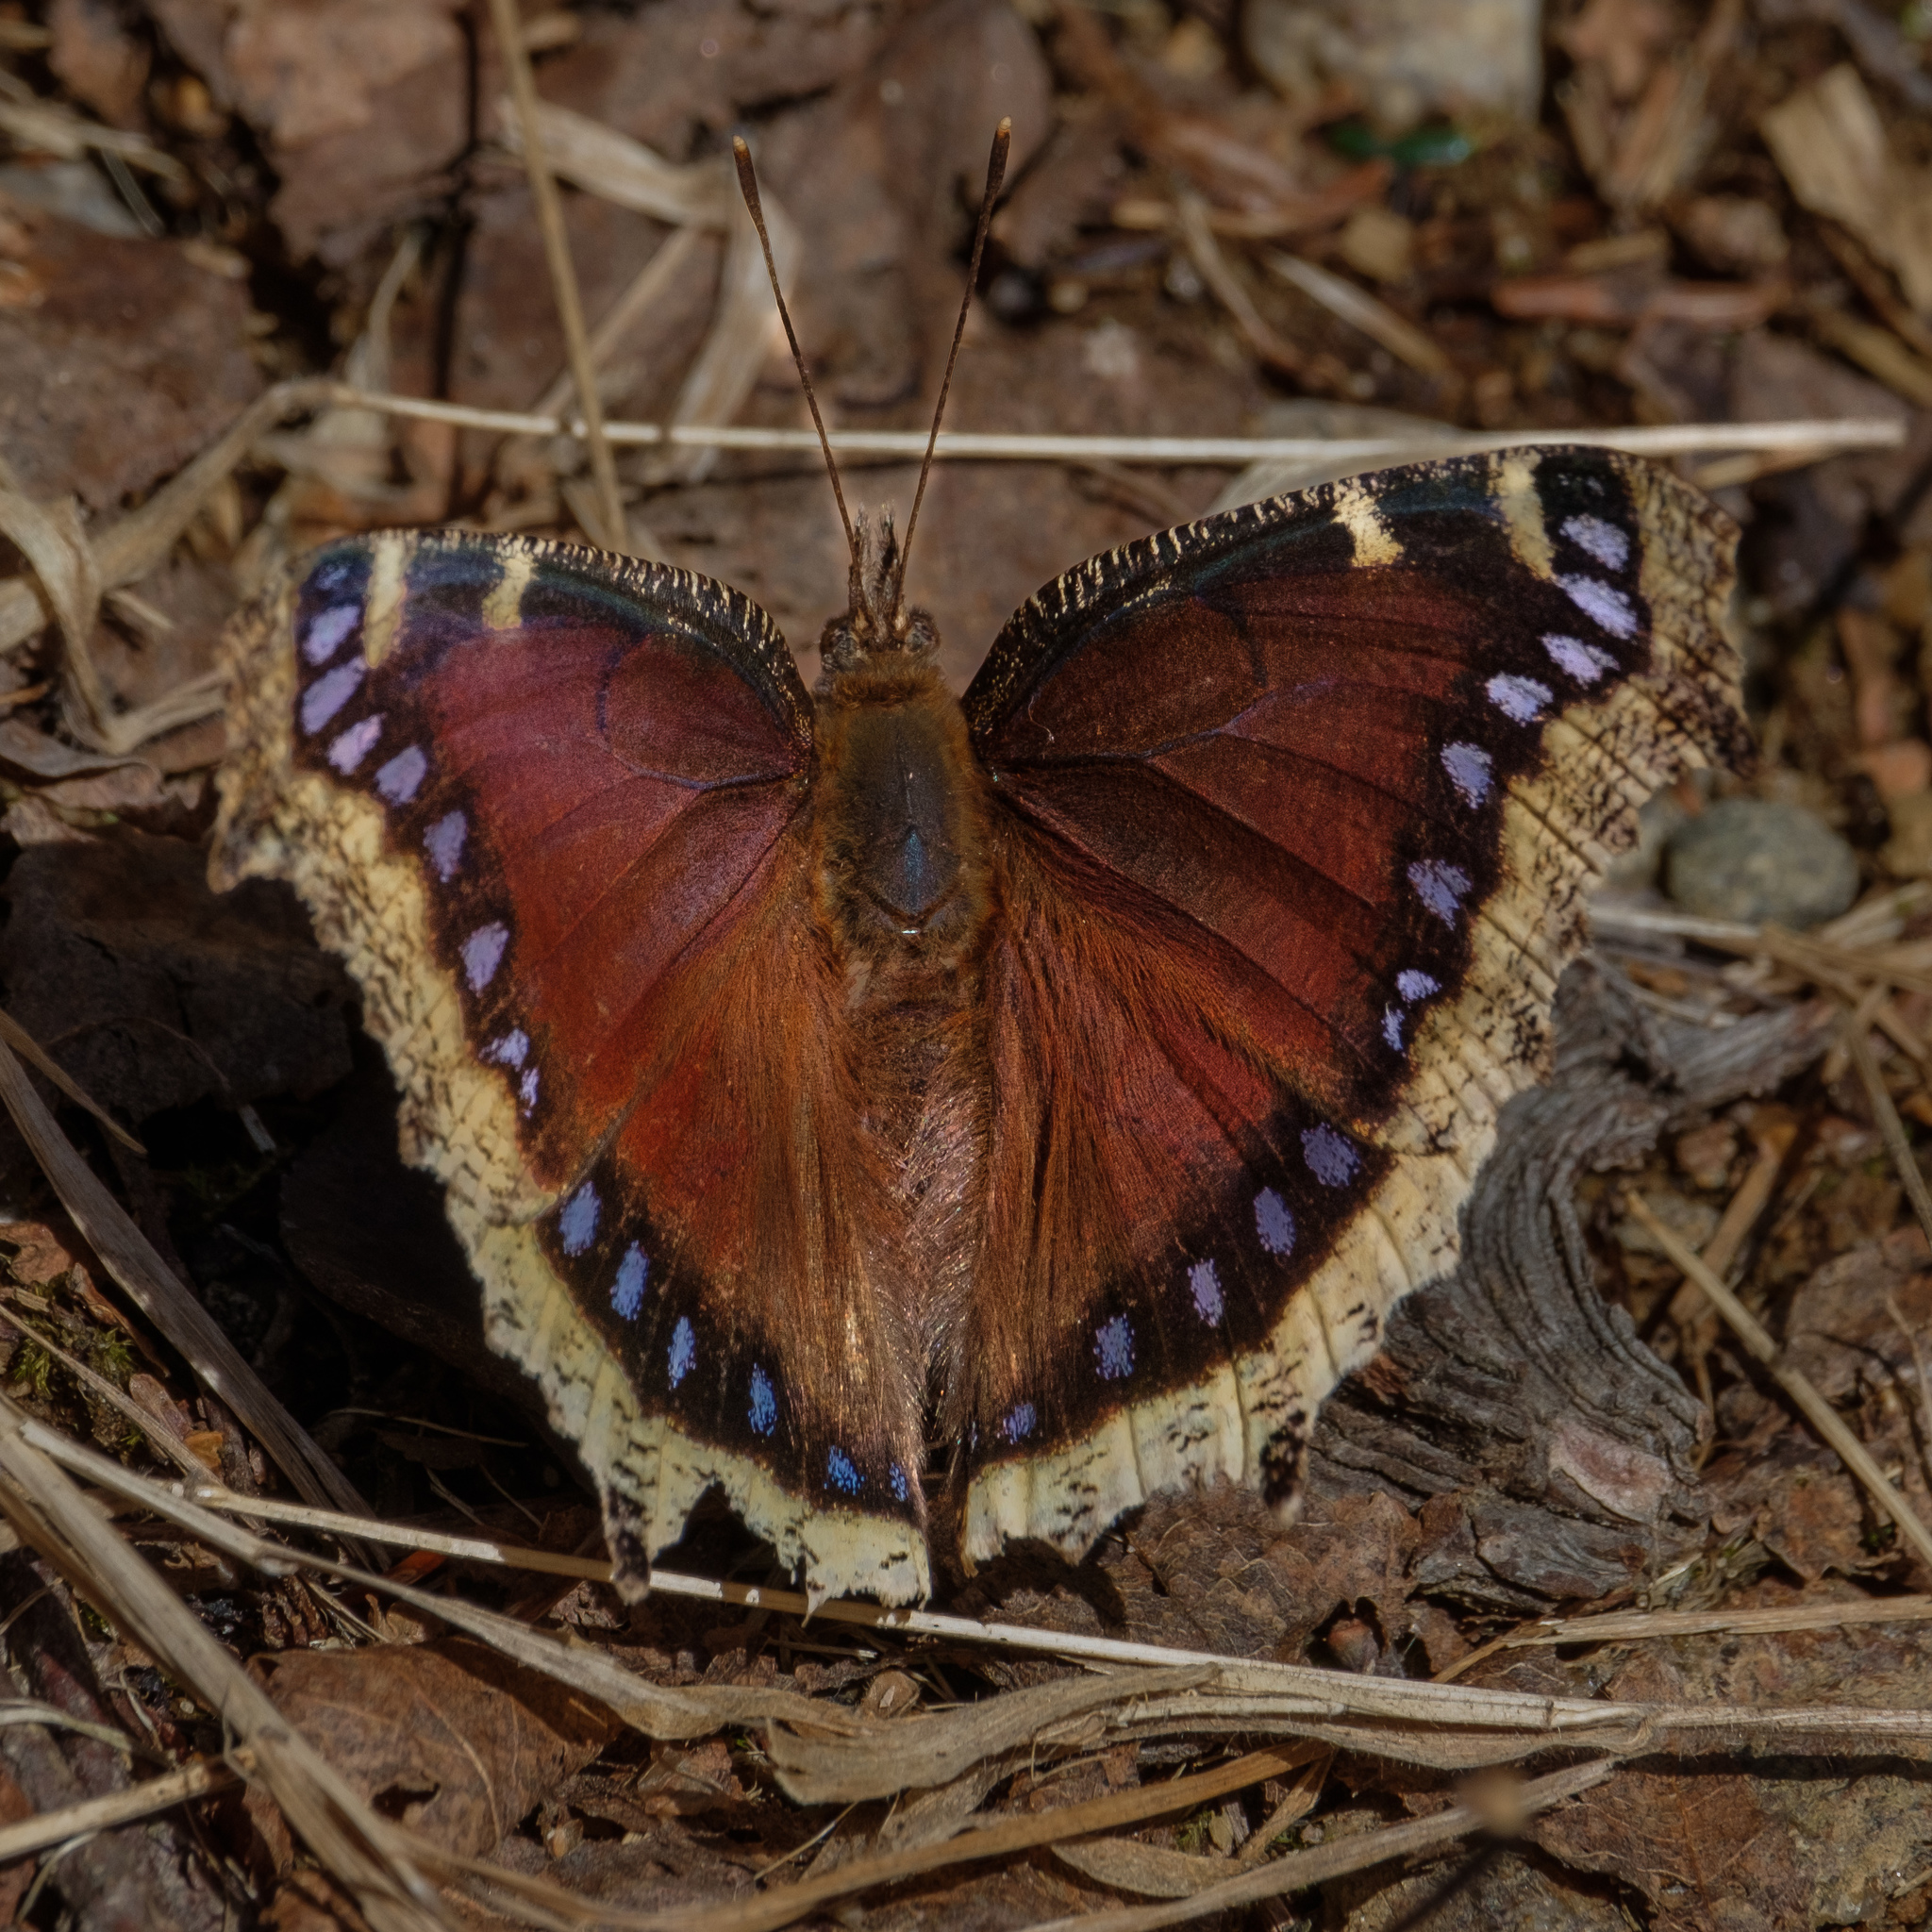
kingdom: Animalia
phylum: Arthropoda
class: Insecta
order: Lepidoptera
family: Nymphalidae
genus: Nymphalis
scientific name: Nymphalis antiopa
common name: Camberwell beauty
